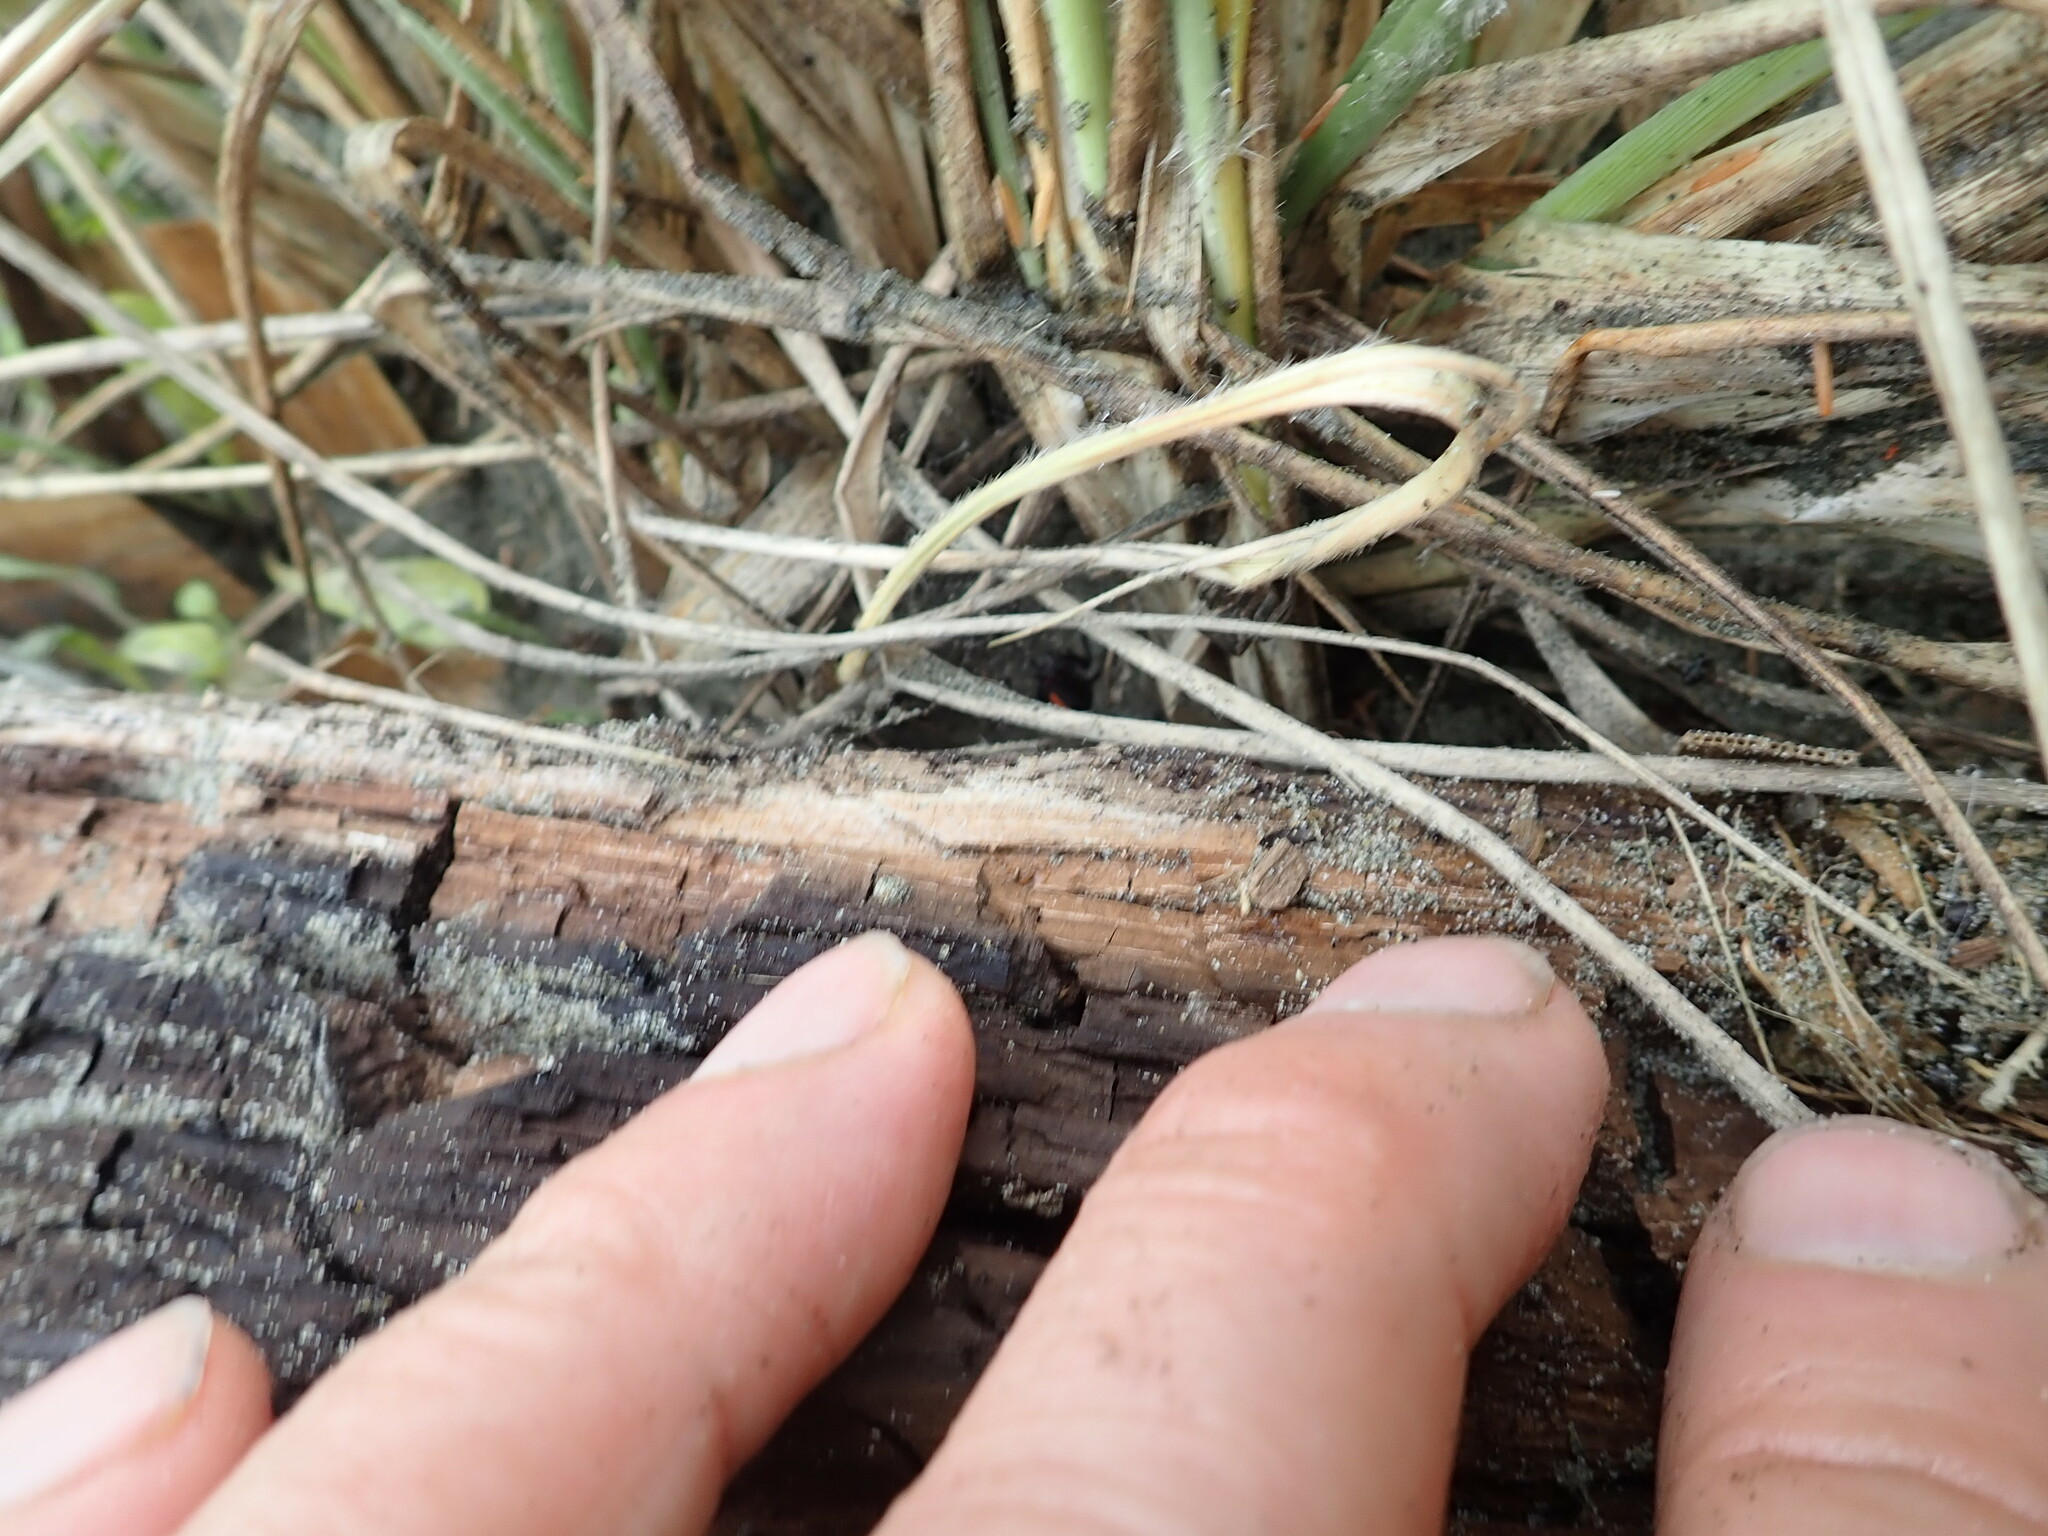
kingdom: Animalia
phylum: Arthropoda
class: Arachnida
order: Araneae
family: Theridiidae
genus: Latrodectus
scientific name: Latrodectus katipo
